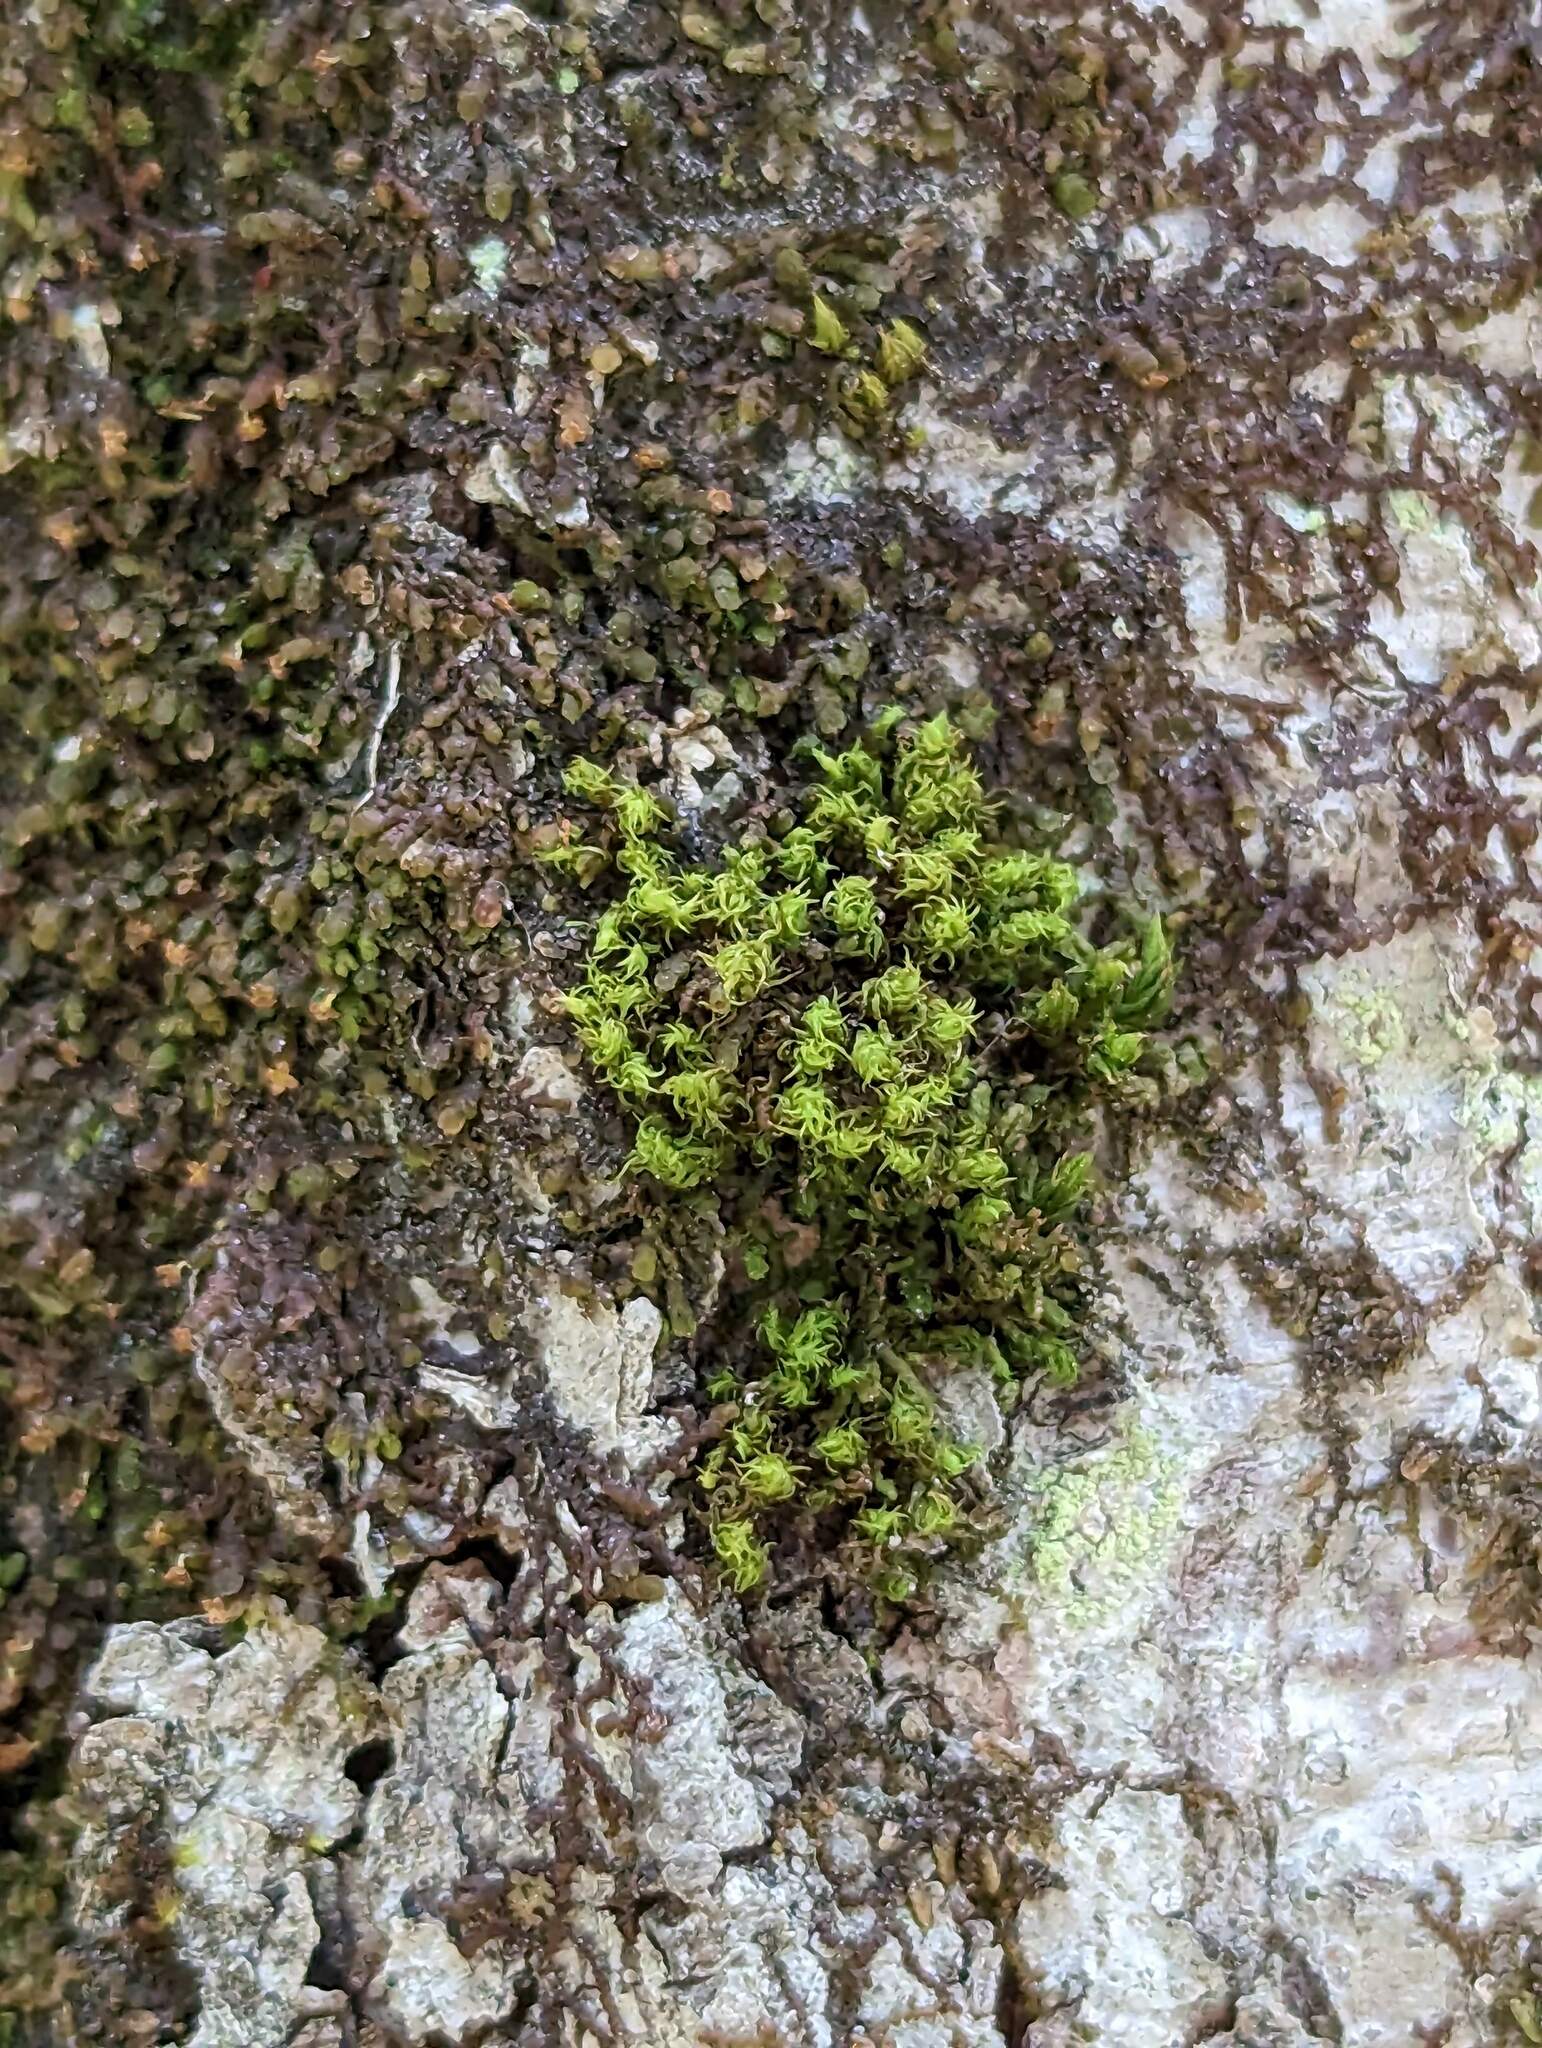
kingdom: Plantae
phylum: Bryophyta
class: Bryopsida
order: Orthotrichales
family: Orthotrichaceae
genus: Ulota
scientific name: Ulota crispa
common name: Crisped pincushion moss
